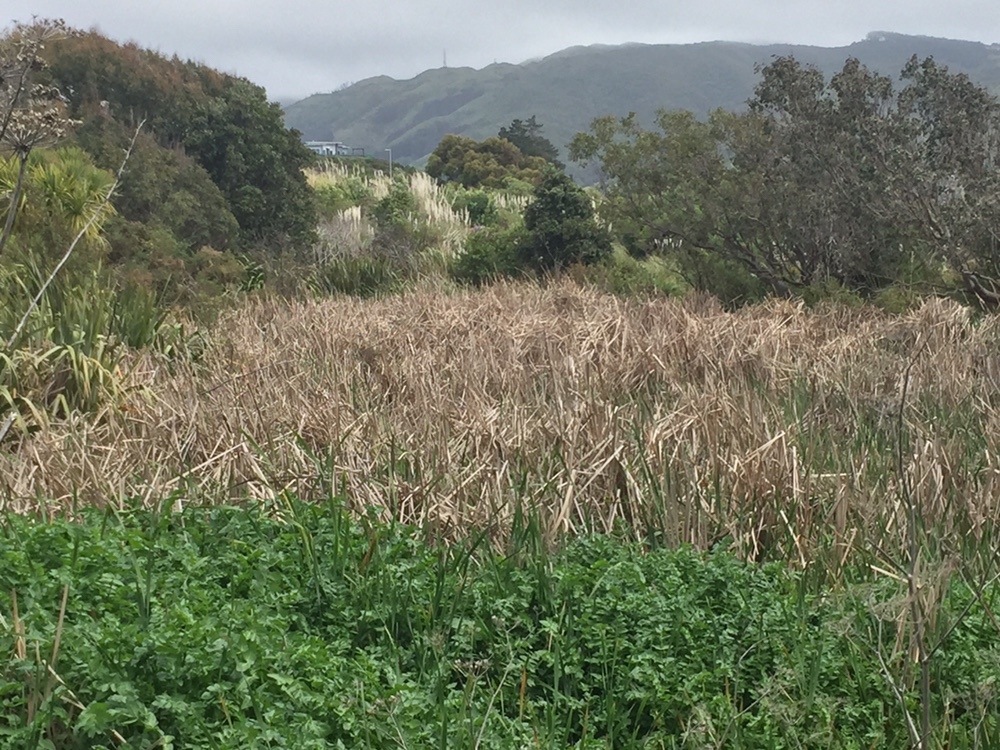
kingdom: Plantae
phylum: Tracheophyta
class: Liliopsida
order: Poales
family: Typhaceae
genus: Typha
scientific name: Typha orientalis
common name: Bullrush
